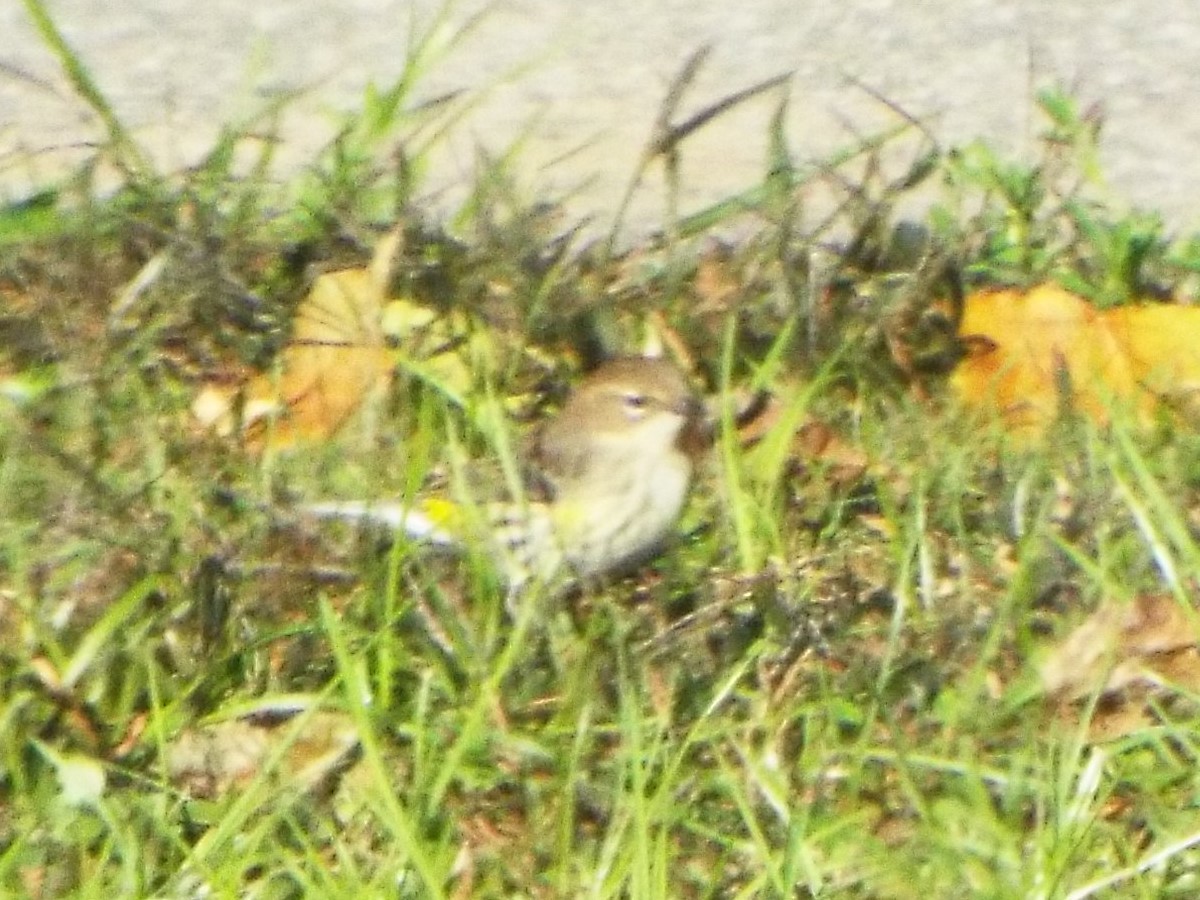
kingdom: Animalia
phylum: Chordata
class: Aves
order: Passeriformes
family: Parulidae
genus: Setophaga
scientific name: Setophaga coronata
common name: Myrtle warbler
